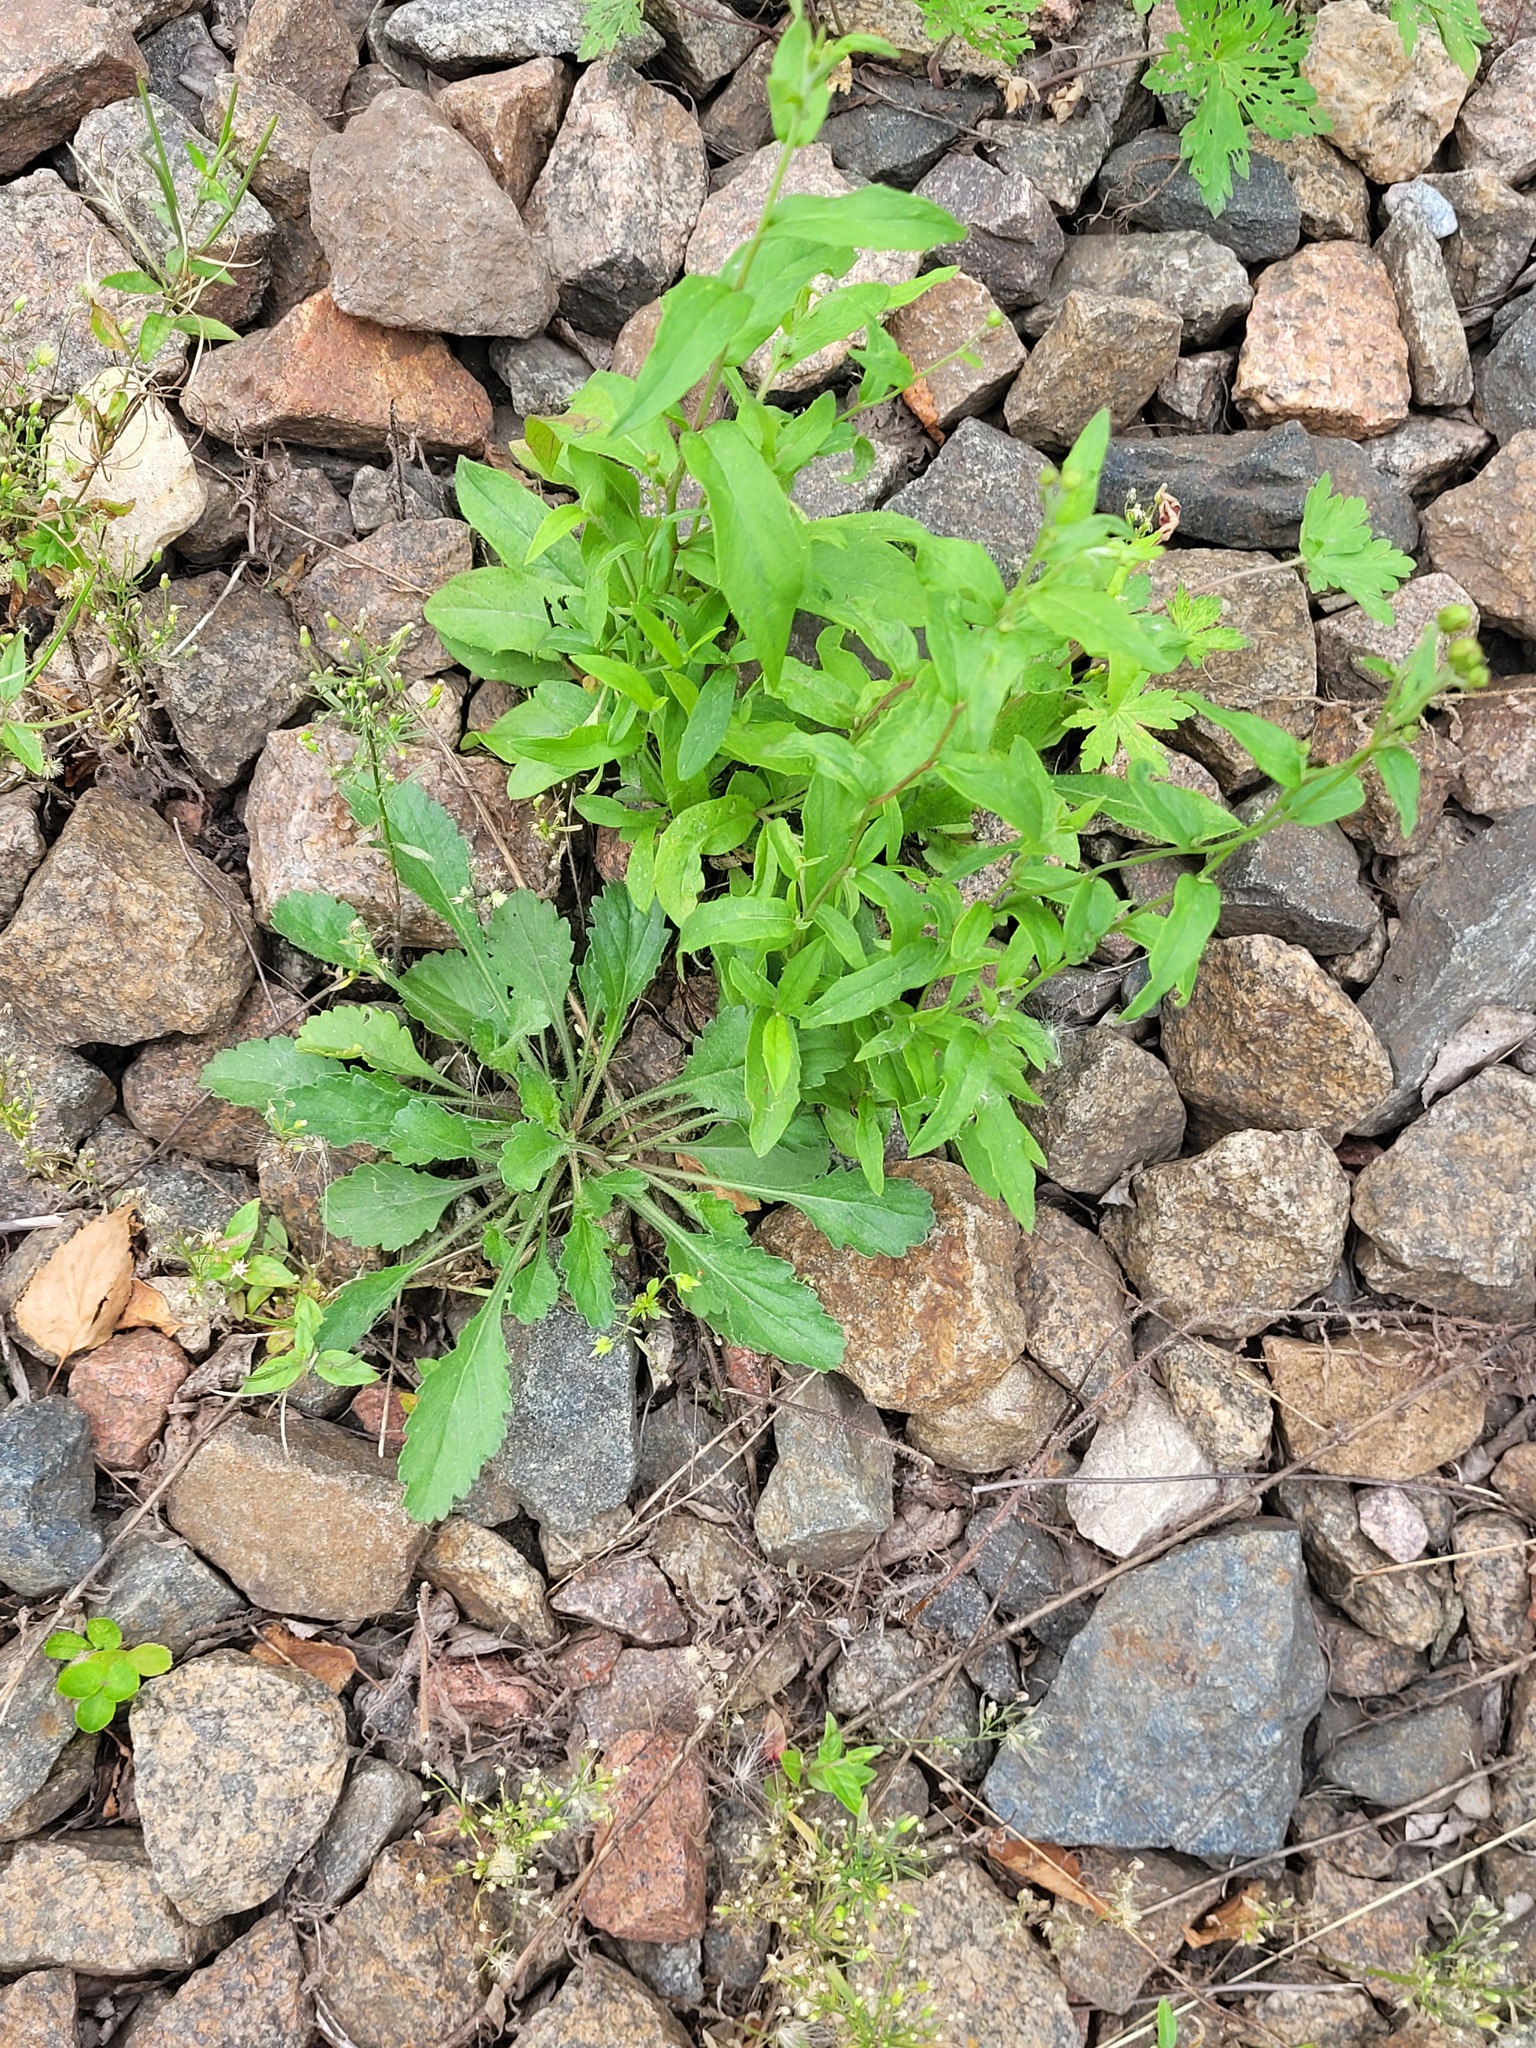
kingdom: Plantae
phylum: Tracheophyta
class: Magnoliopsida
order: Asterales
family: Asteraceae
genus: Leucanthemum
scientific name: Leucanthemum vulgare
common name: Oxeye daisy
